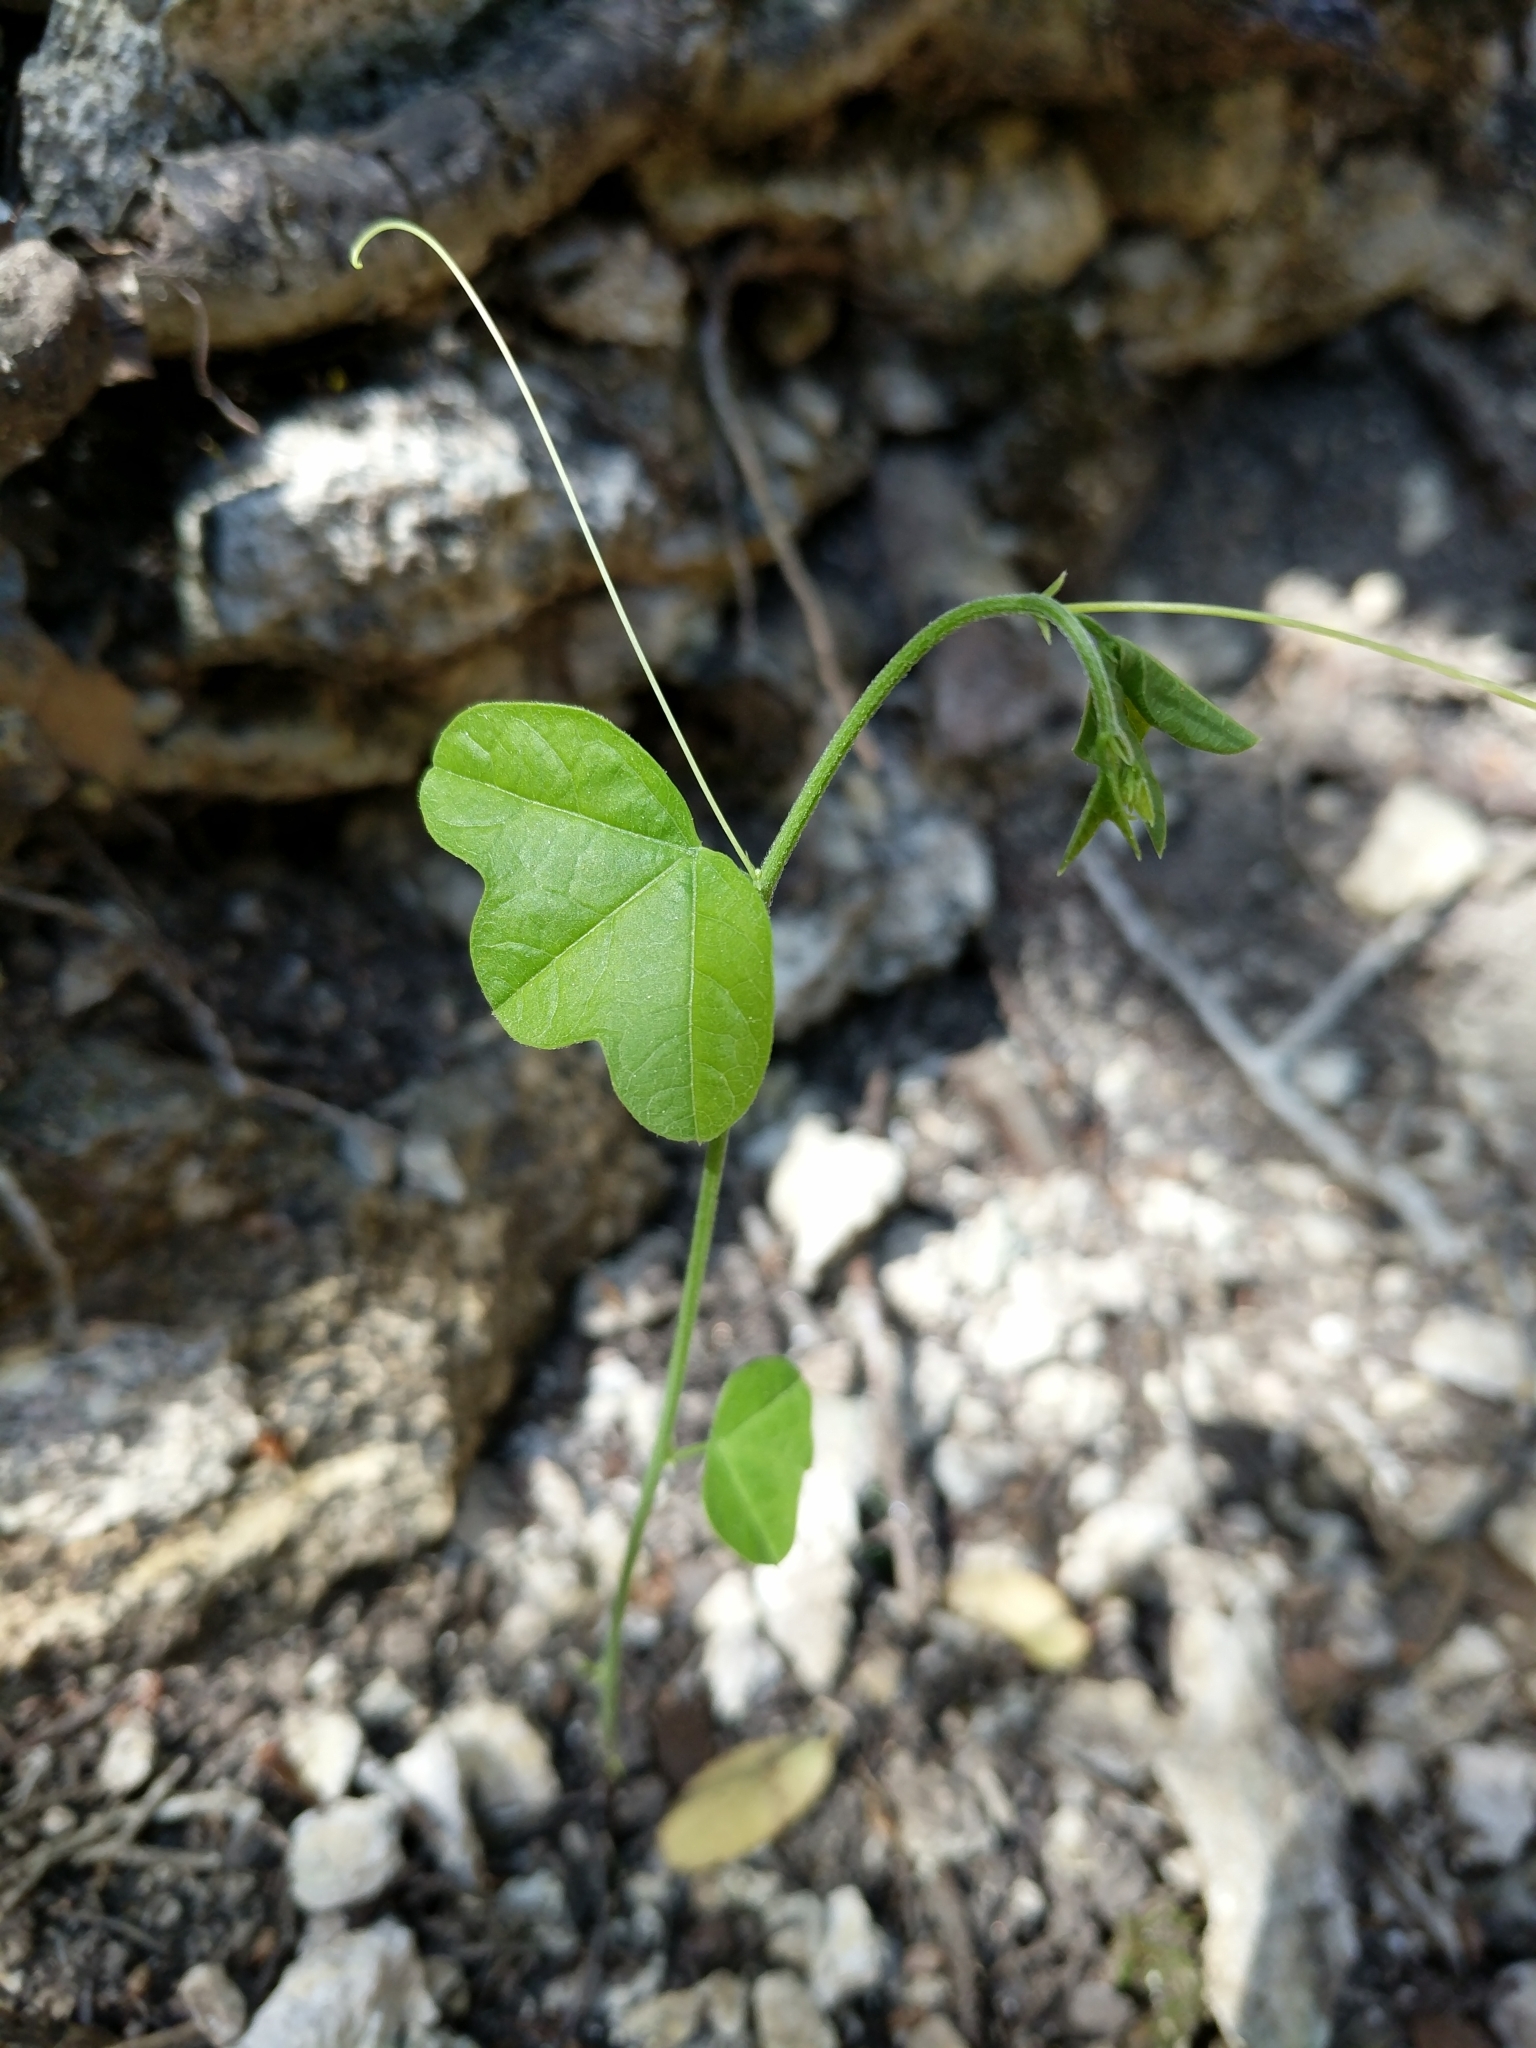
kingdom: Plantae
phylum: Tracheophyta
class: Magnoliopsida
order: Malpighiales
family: Passifloraceae
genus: Passiflora
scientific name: Passiflora lutea
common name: Yellow passionflower
